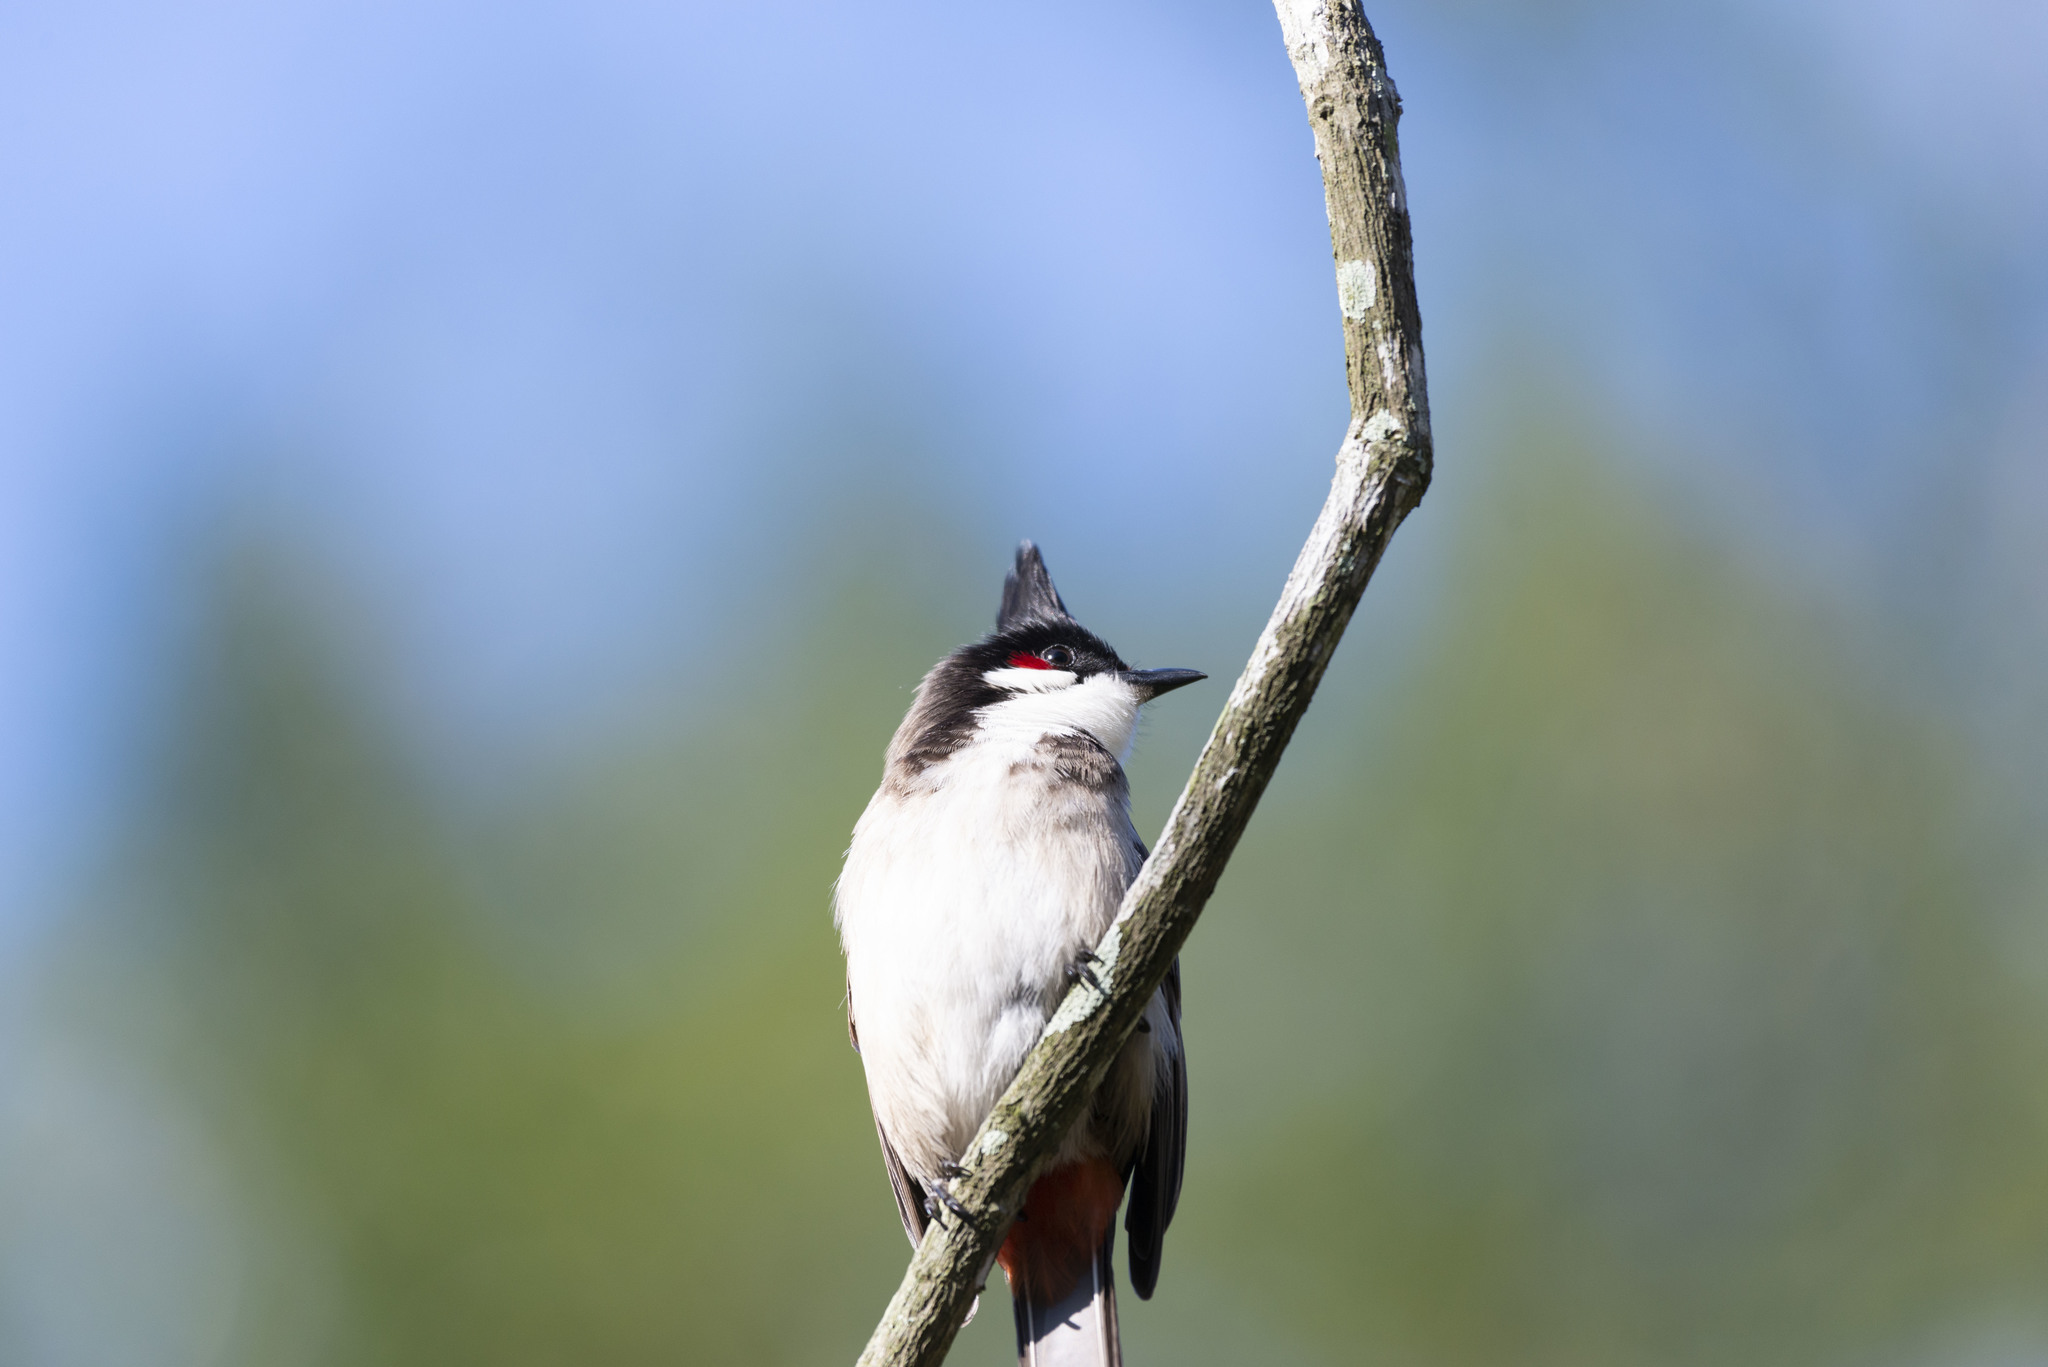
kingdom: Animalia
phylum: Chordata
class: Aves
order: Passeriformes
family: Pycnonotidae
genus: Pycnonotus
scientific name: Pycnonotus jocosus
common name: Red-whiskered bulbul
